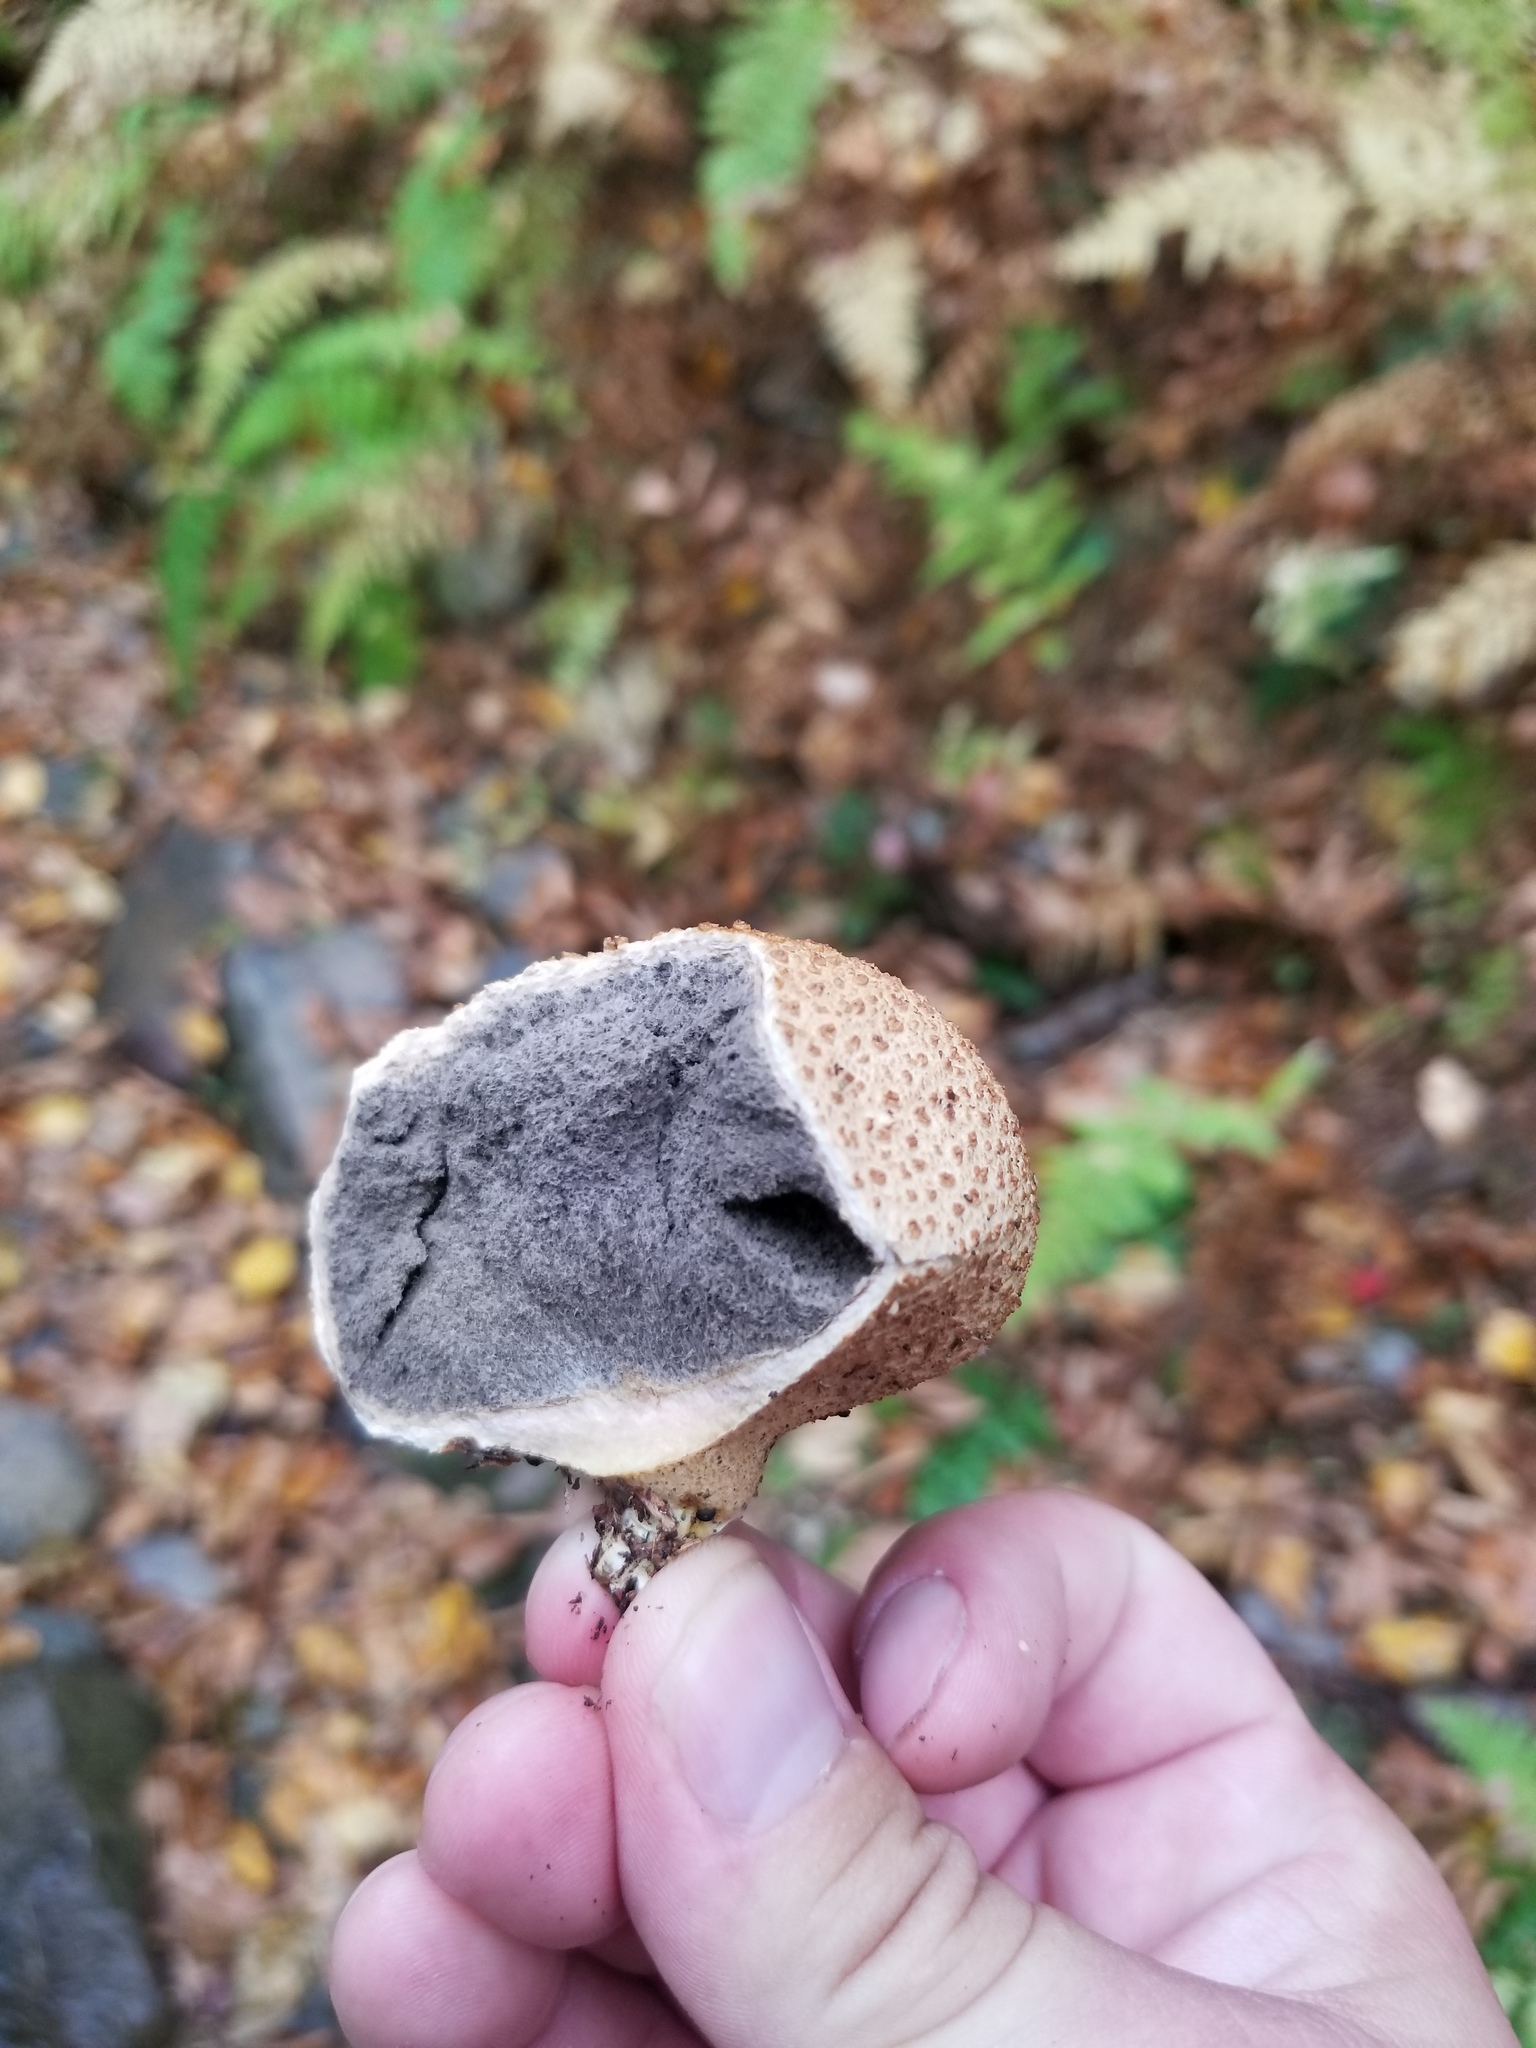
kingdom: Fungi
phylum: Basidiomycota
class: Agaricomycetes
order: Boletales
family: Sclerodermataceae
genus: Scleroderma
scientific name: Scleroderma citrinum
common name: Common earthball
